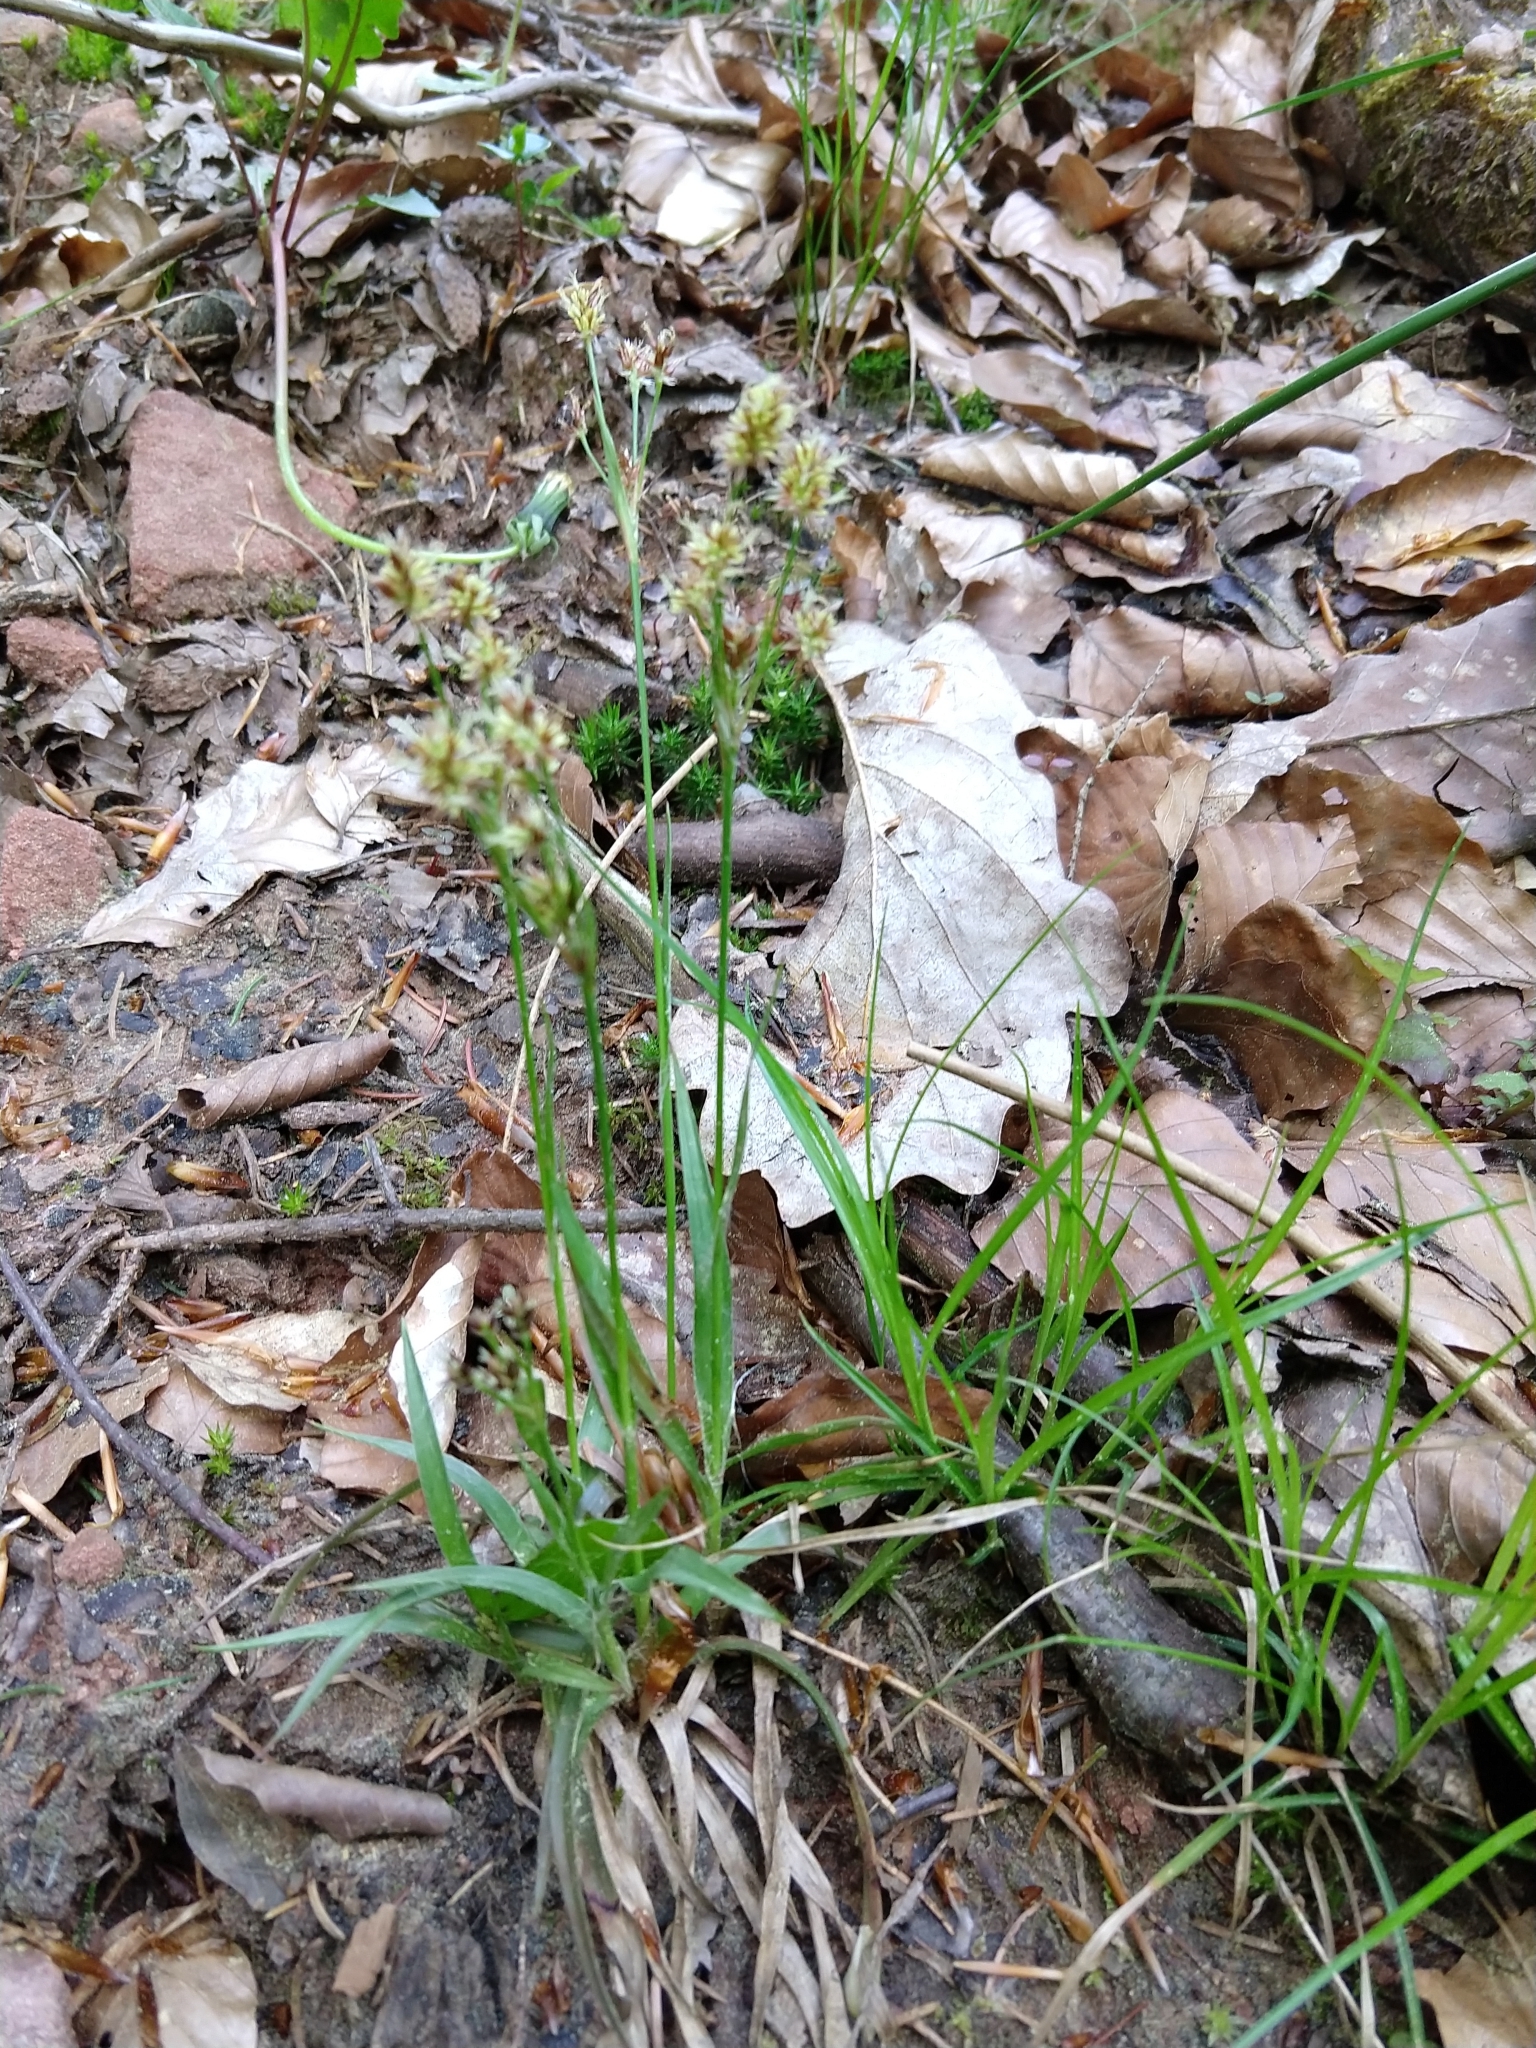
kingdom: Plantae
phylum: Tracheophyta
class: Liliopsida
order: Poales
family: Juncaceae
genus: Luzula
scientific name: Luzula multiflora
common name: Heath wood-rush
